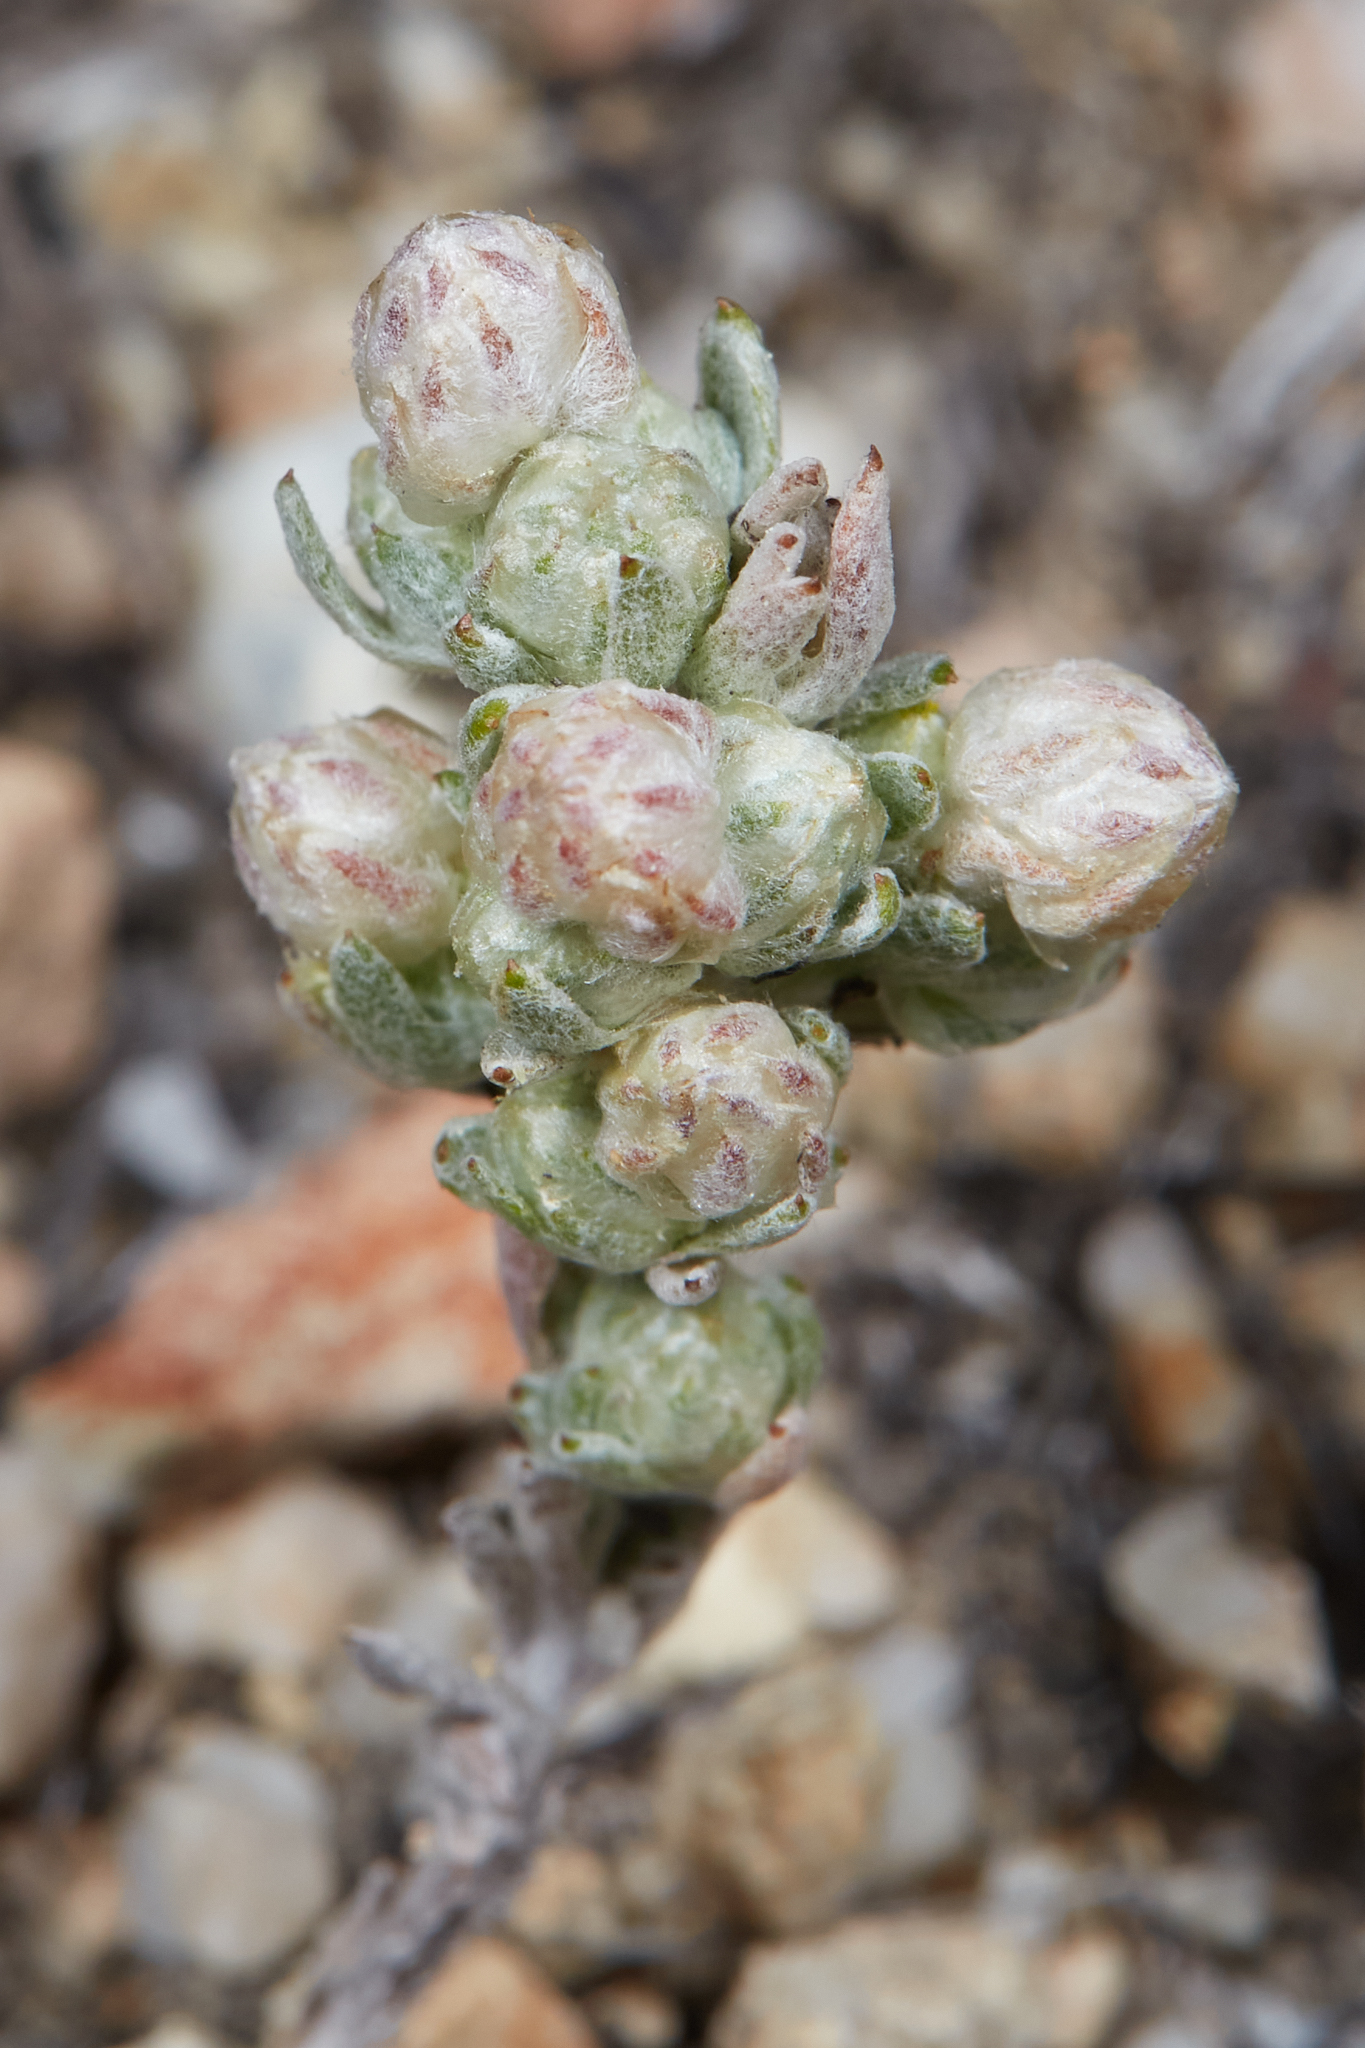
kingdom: Plantae
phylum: Tracheophyta
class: Magnoliopsida
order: Asterales
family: Asteraceae
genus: Stylocline
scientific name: Stylocline gnaphaloides
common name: Everlasting nest-straw
